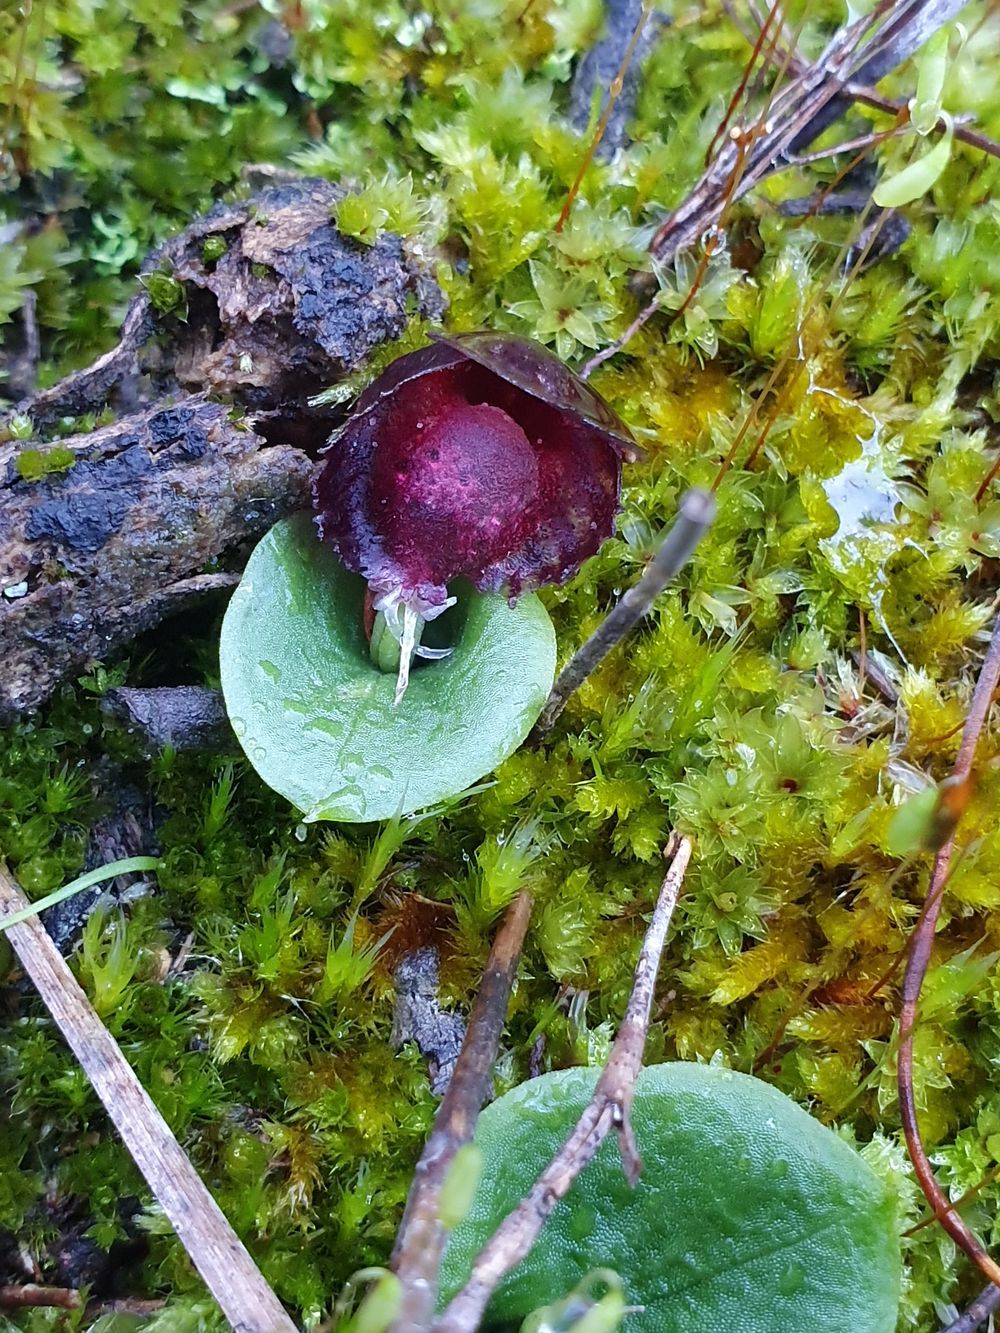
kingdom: Plantae
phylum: Tracheophyta
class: Liliopsida
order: Asparagales
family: Orchidaceae
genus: Corybas
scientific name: Corybas recurvus
